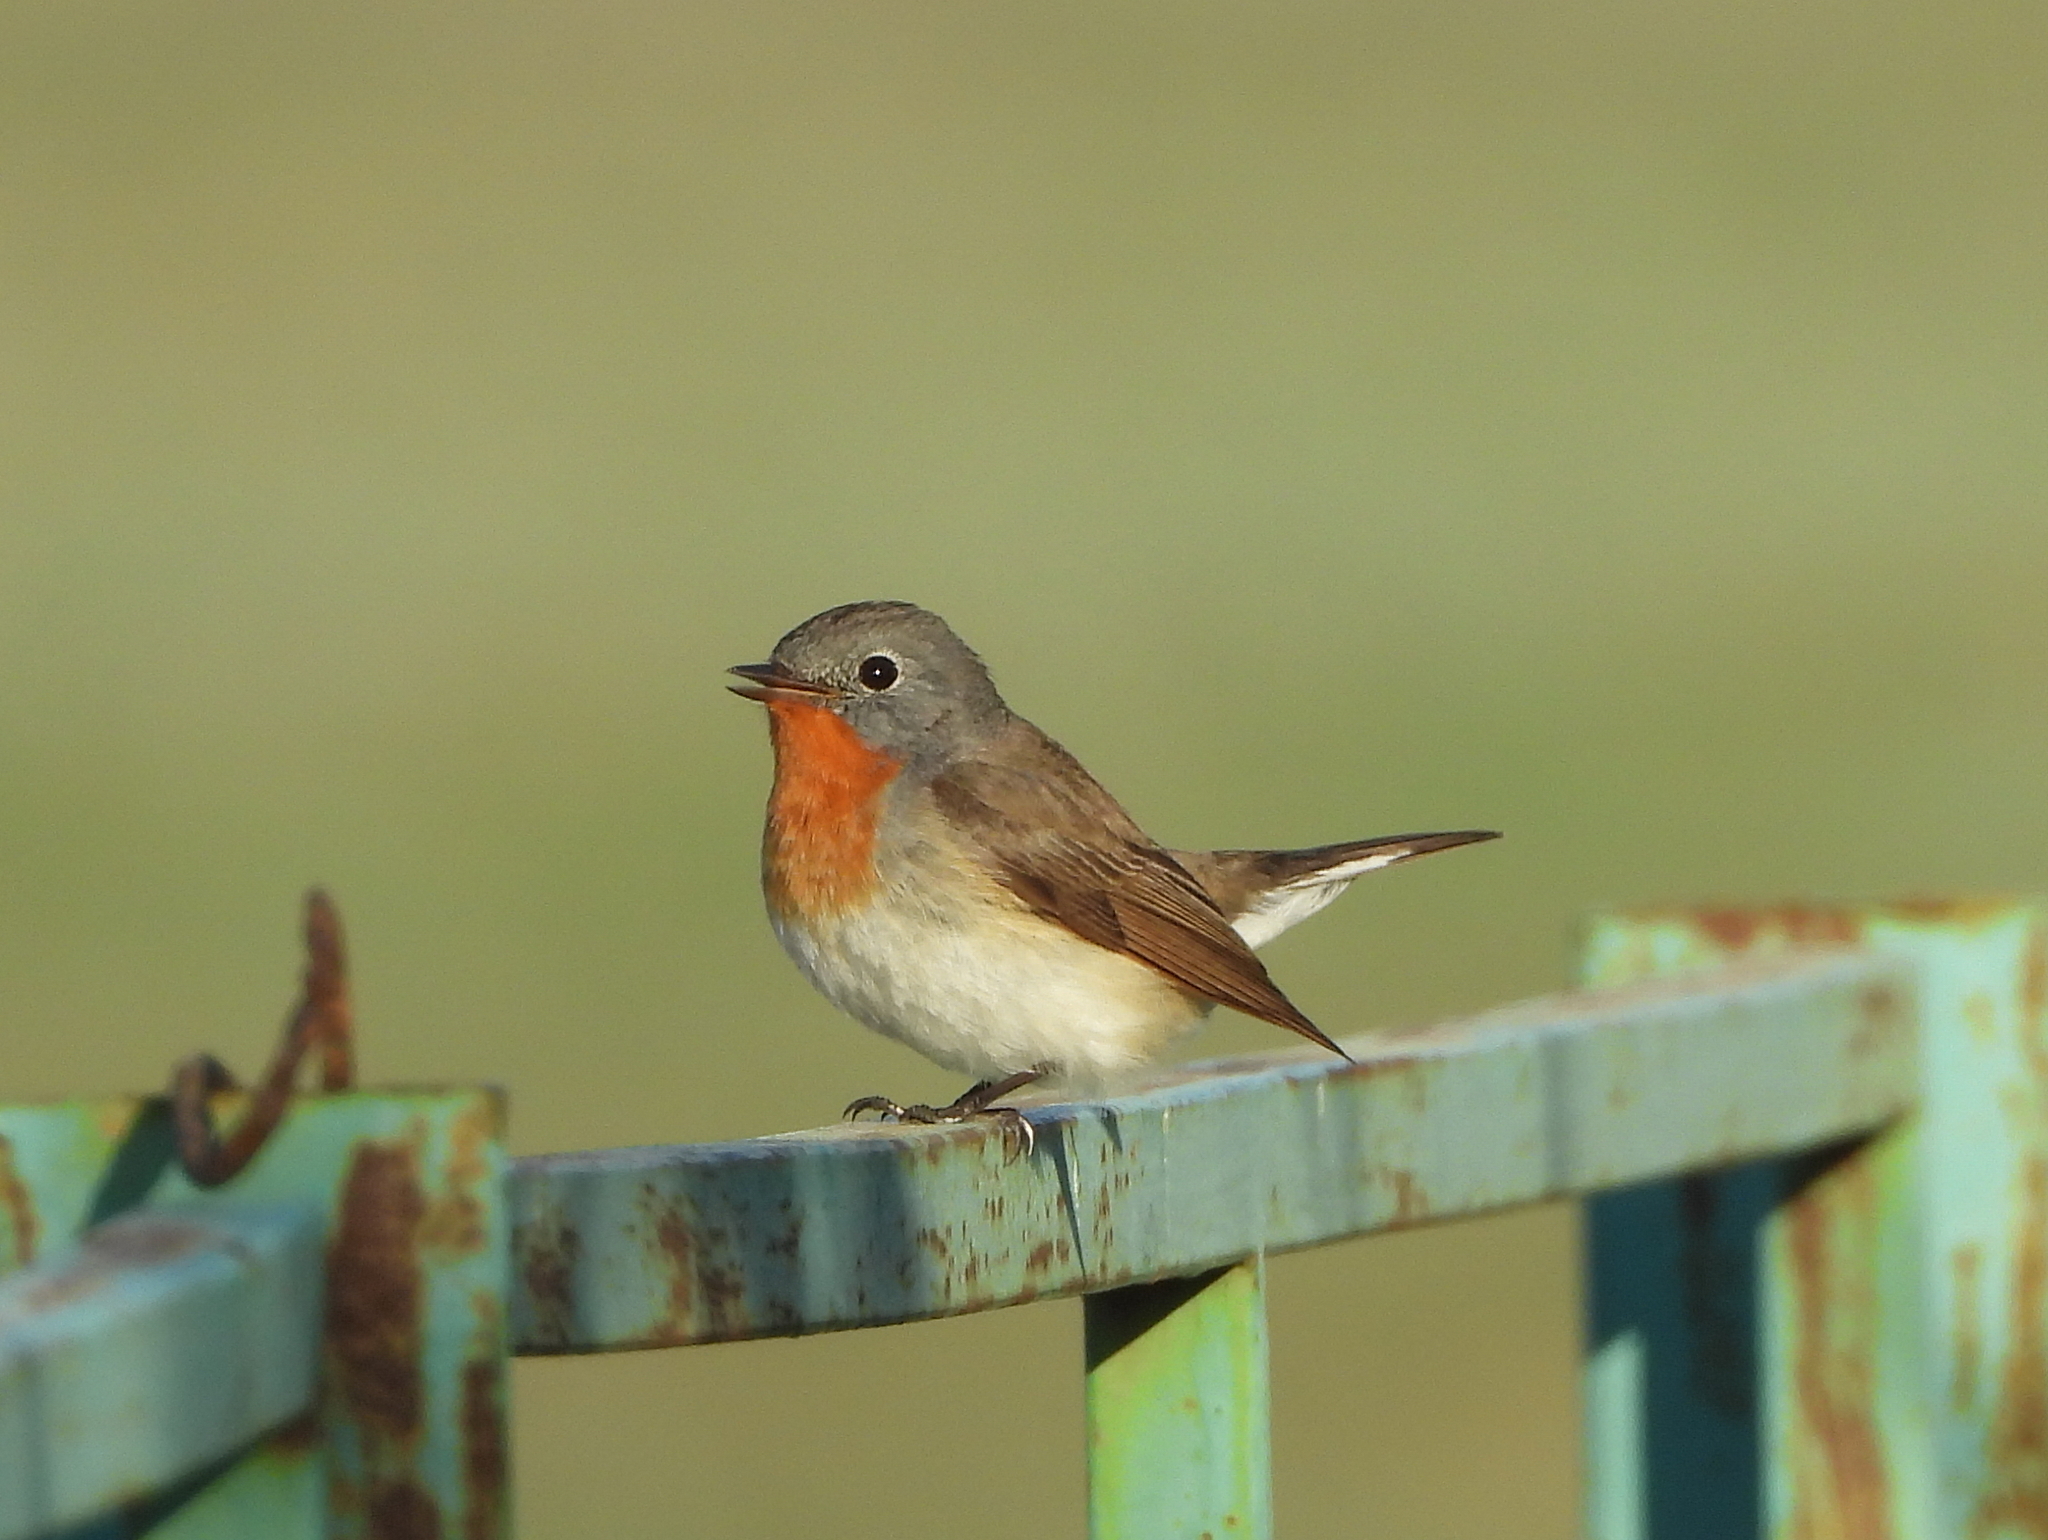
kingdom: Animalia
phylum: Chordata
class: Aves
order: Passeriformes
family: Muscicapidae
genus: Ficedula
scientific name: Ficedula parva
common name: Red-breasted flycatcher
